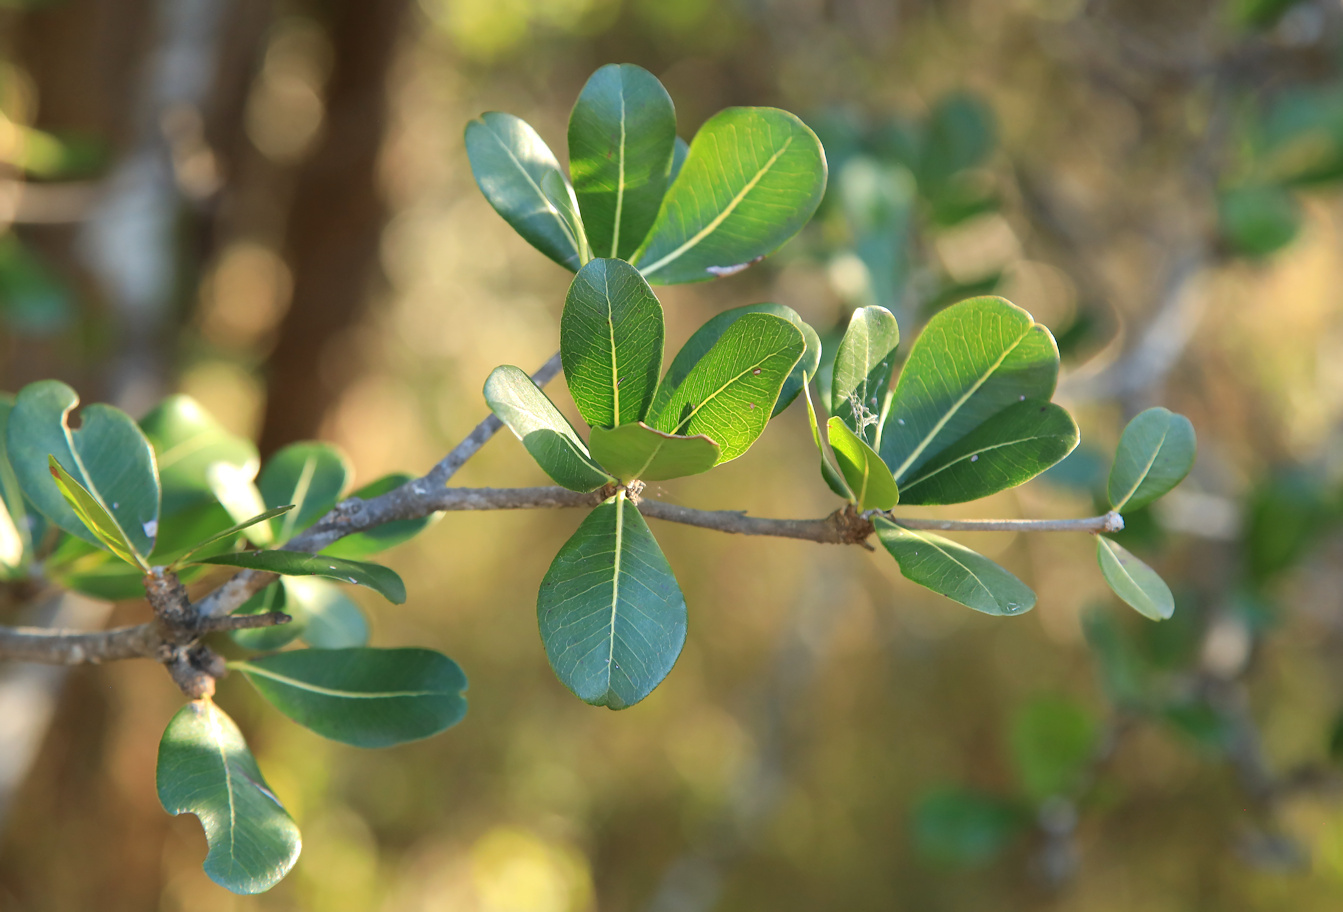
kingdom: Plantae
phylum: Tracheophyta
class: Magnoliopsida
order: Ericales
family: Sapotaceae
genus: Manilkara
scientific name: Manilkara mochisia
